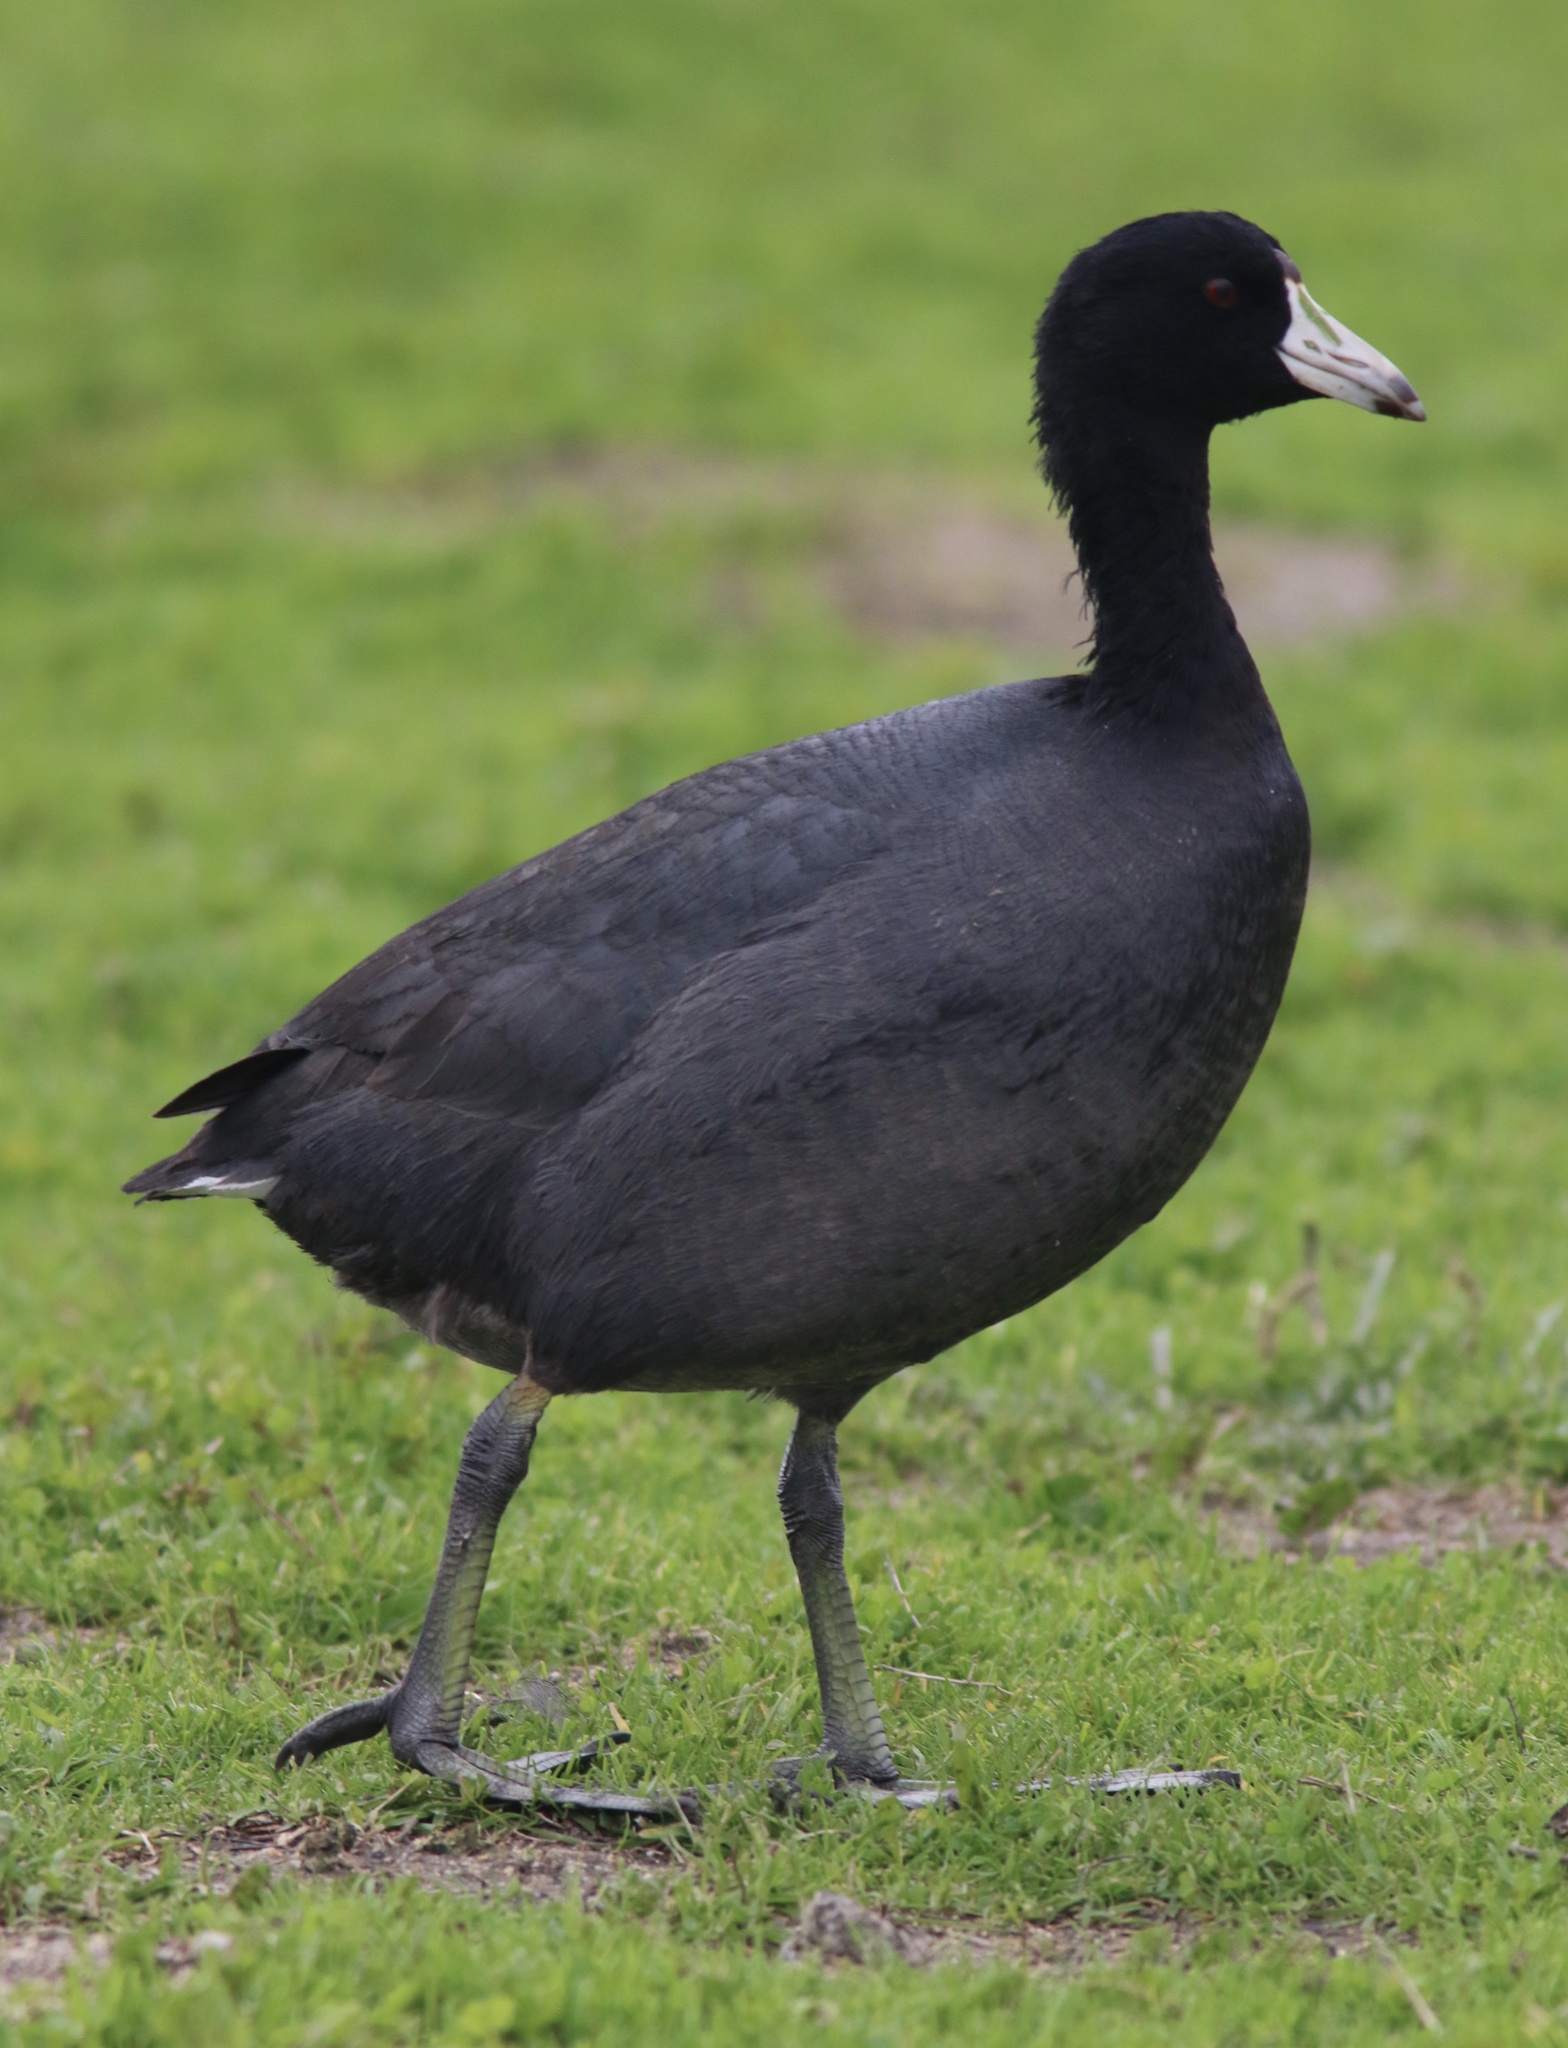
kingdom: Animalia
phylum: Chordata
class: Aves
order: Gruiformes
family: Rallidae
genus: Fulica
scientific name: Fulica americana
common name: American coot
